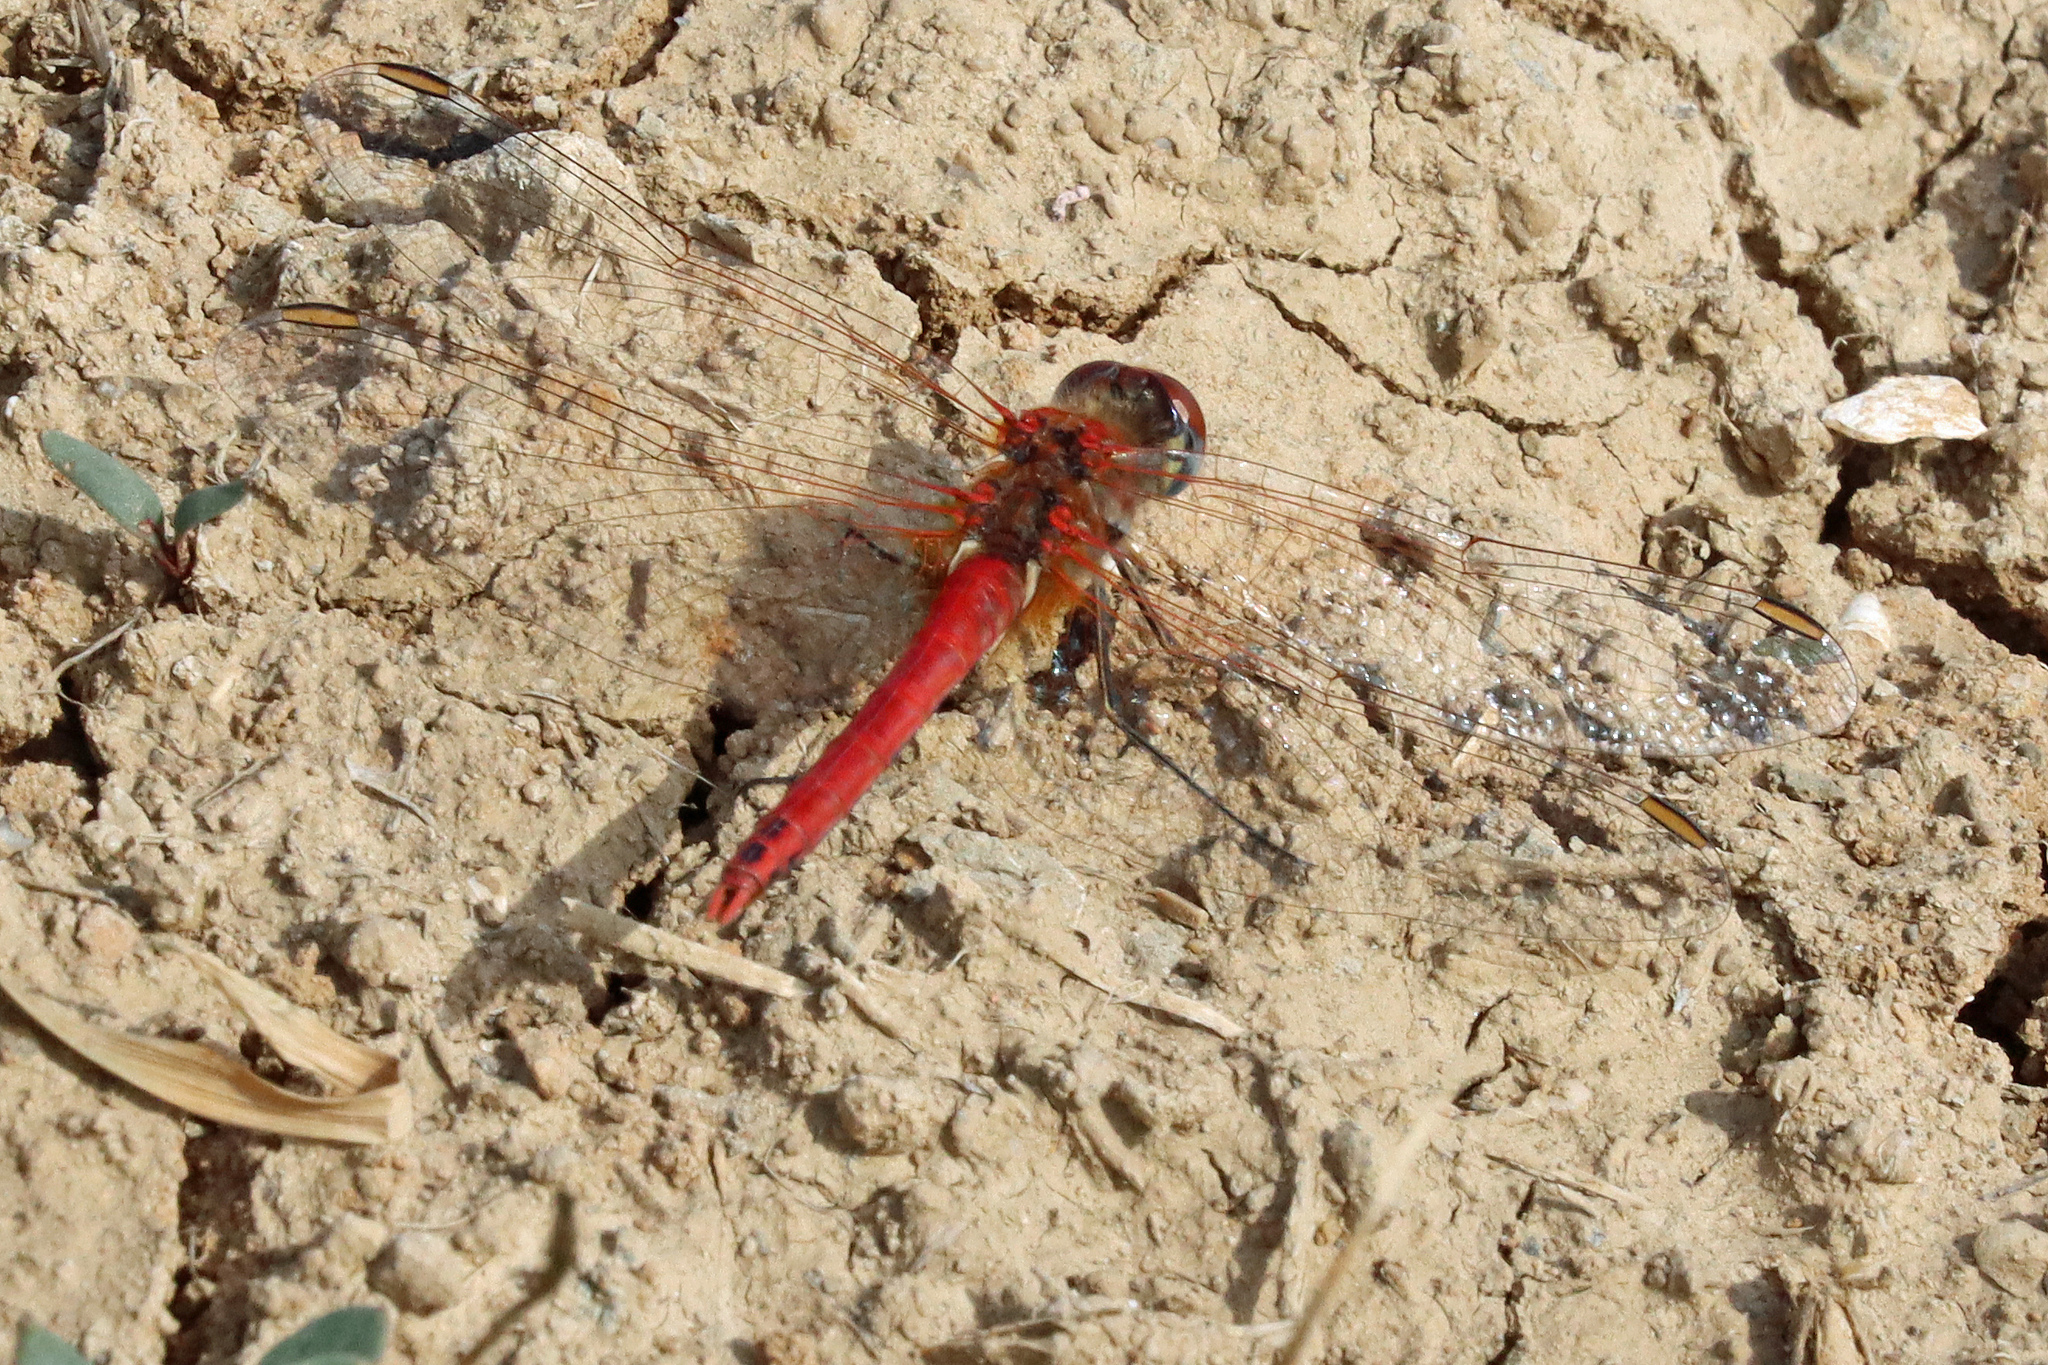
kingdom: Animalia
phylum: Arthropoda
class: Insecta
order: Odonata
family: Libellulidae
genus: Sympetrum
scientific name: Sympetrum fonscolombii
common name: Red-veined darter
